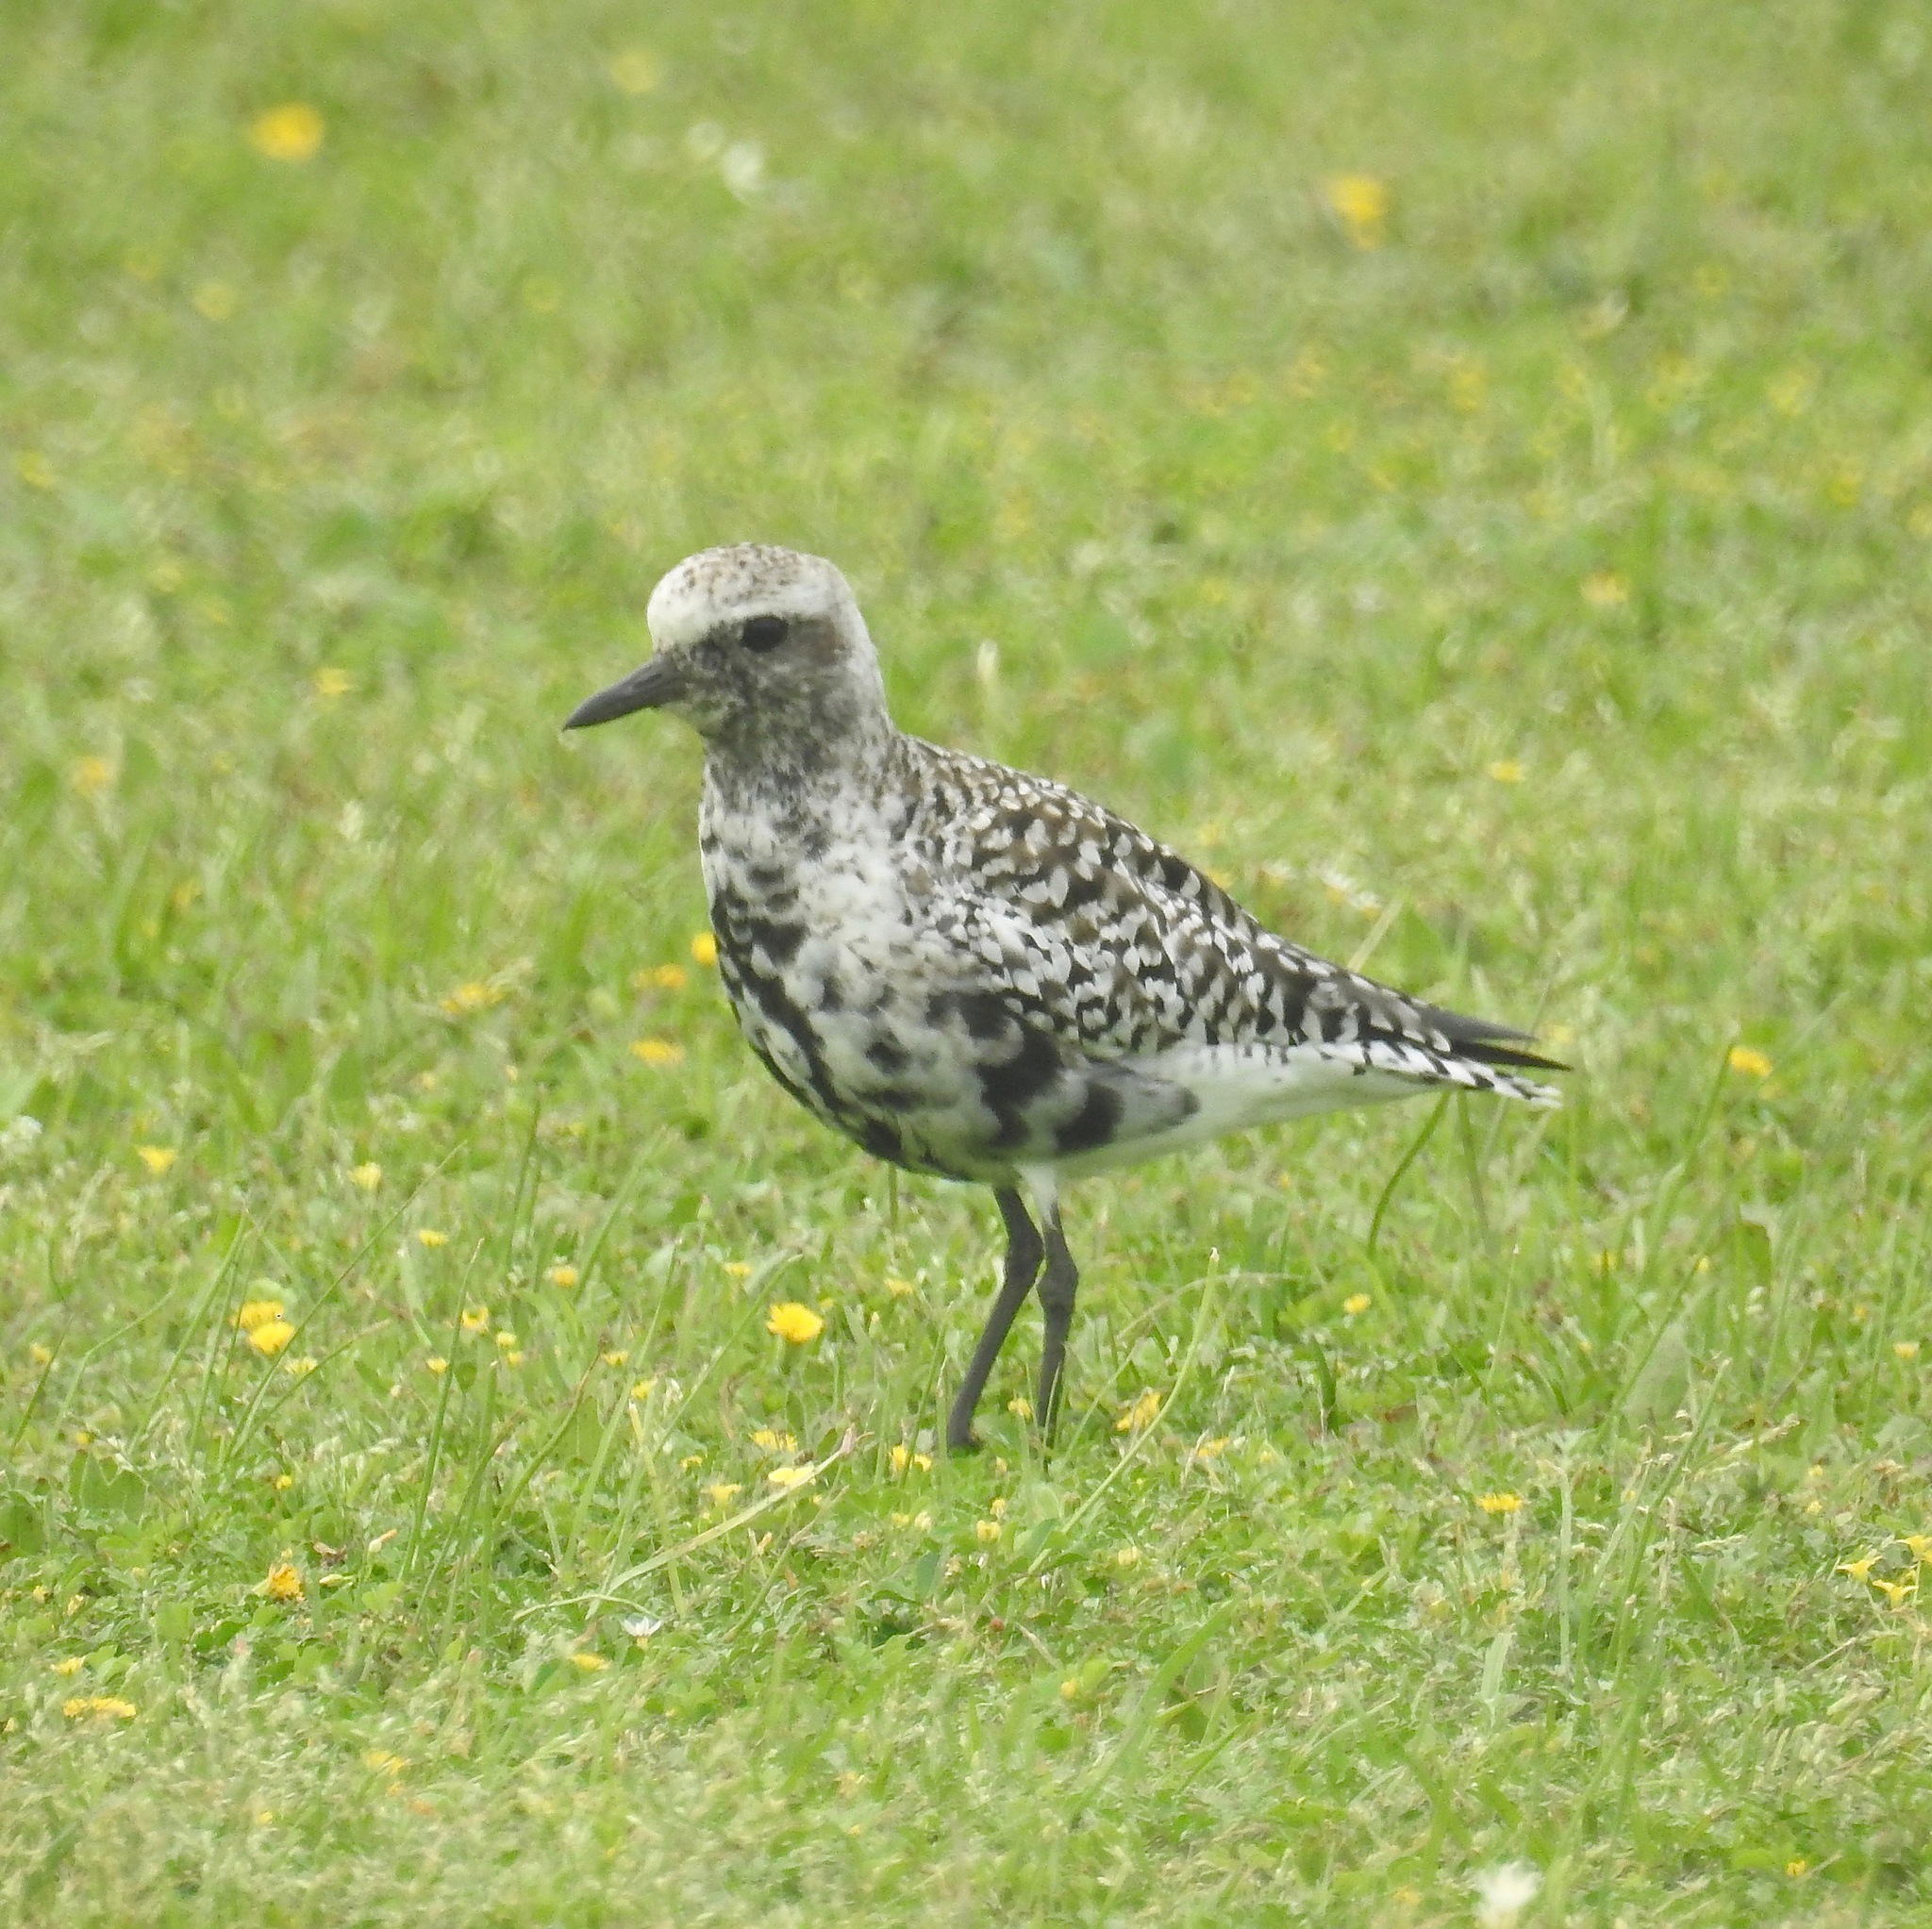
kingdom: Animalia
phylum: Chordata
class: Aves
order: Charadriiformes
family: Charadriidae
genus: Pluvialis
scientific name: Pluvialis squatarola
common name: Grey plover
